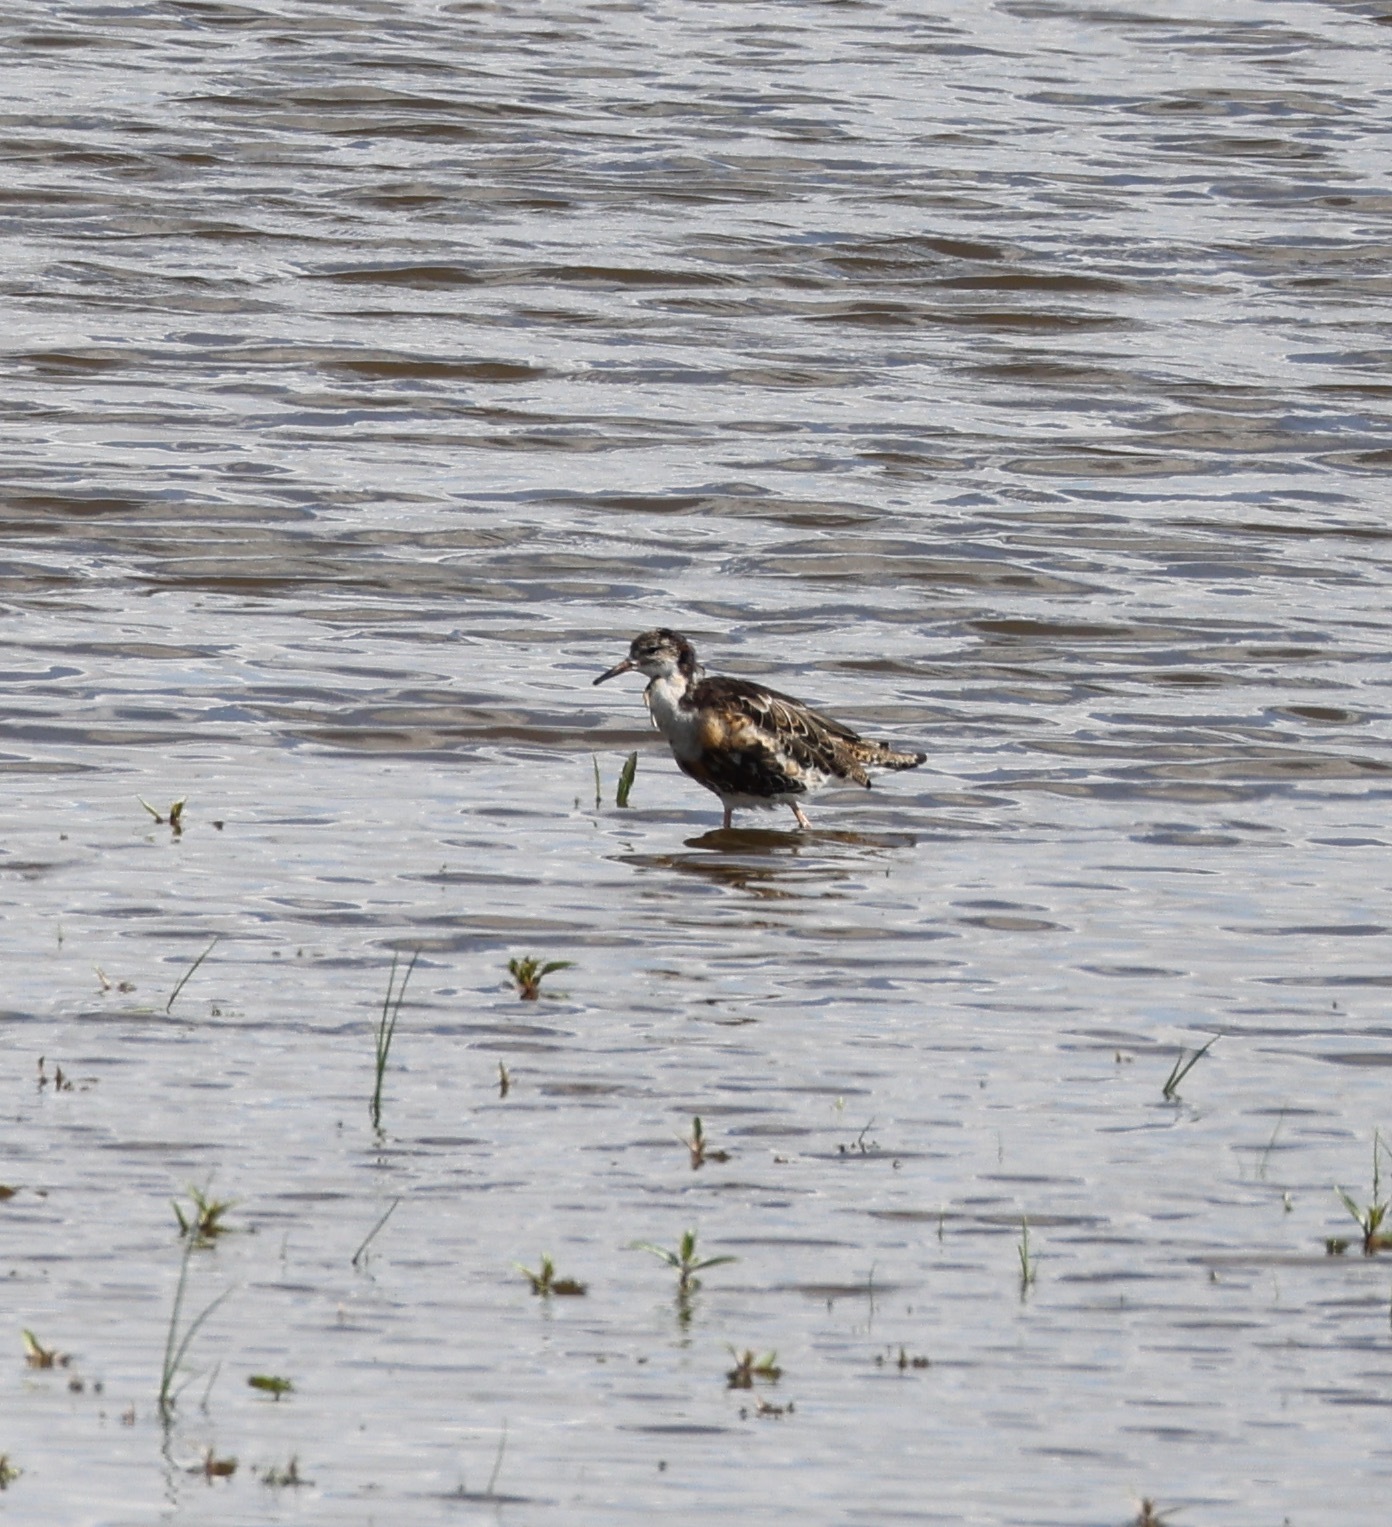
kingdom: Animalia
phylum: Chordata
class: Aves
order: Charadriiformes
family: Scolopacidae
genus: Calidris
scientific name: Calidris pugnax
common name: Ruff
